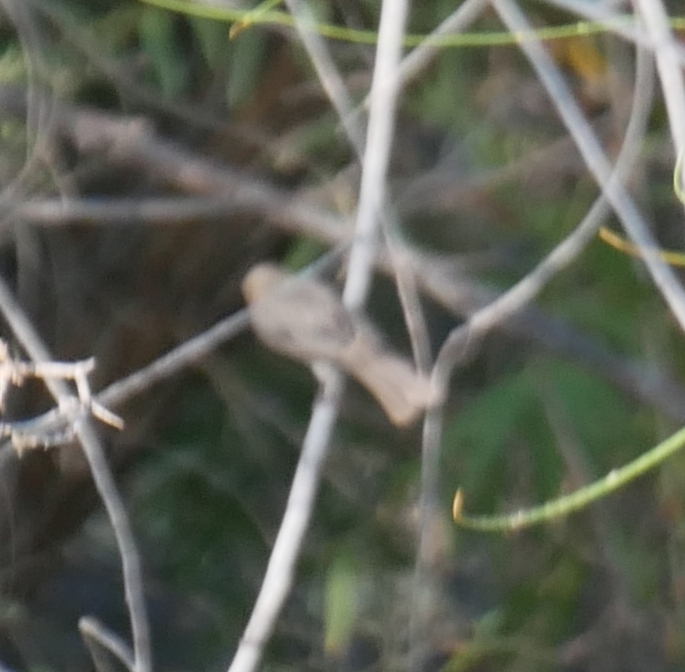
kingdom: Animalia
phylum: Chordata
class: Aves
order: Passeriformes
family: Remizidae
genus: Auriparus
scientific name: Auriparus flaviceps
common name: Verdin
